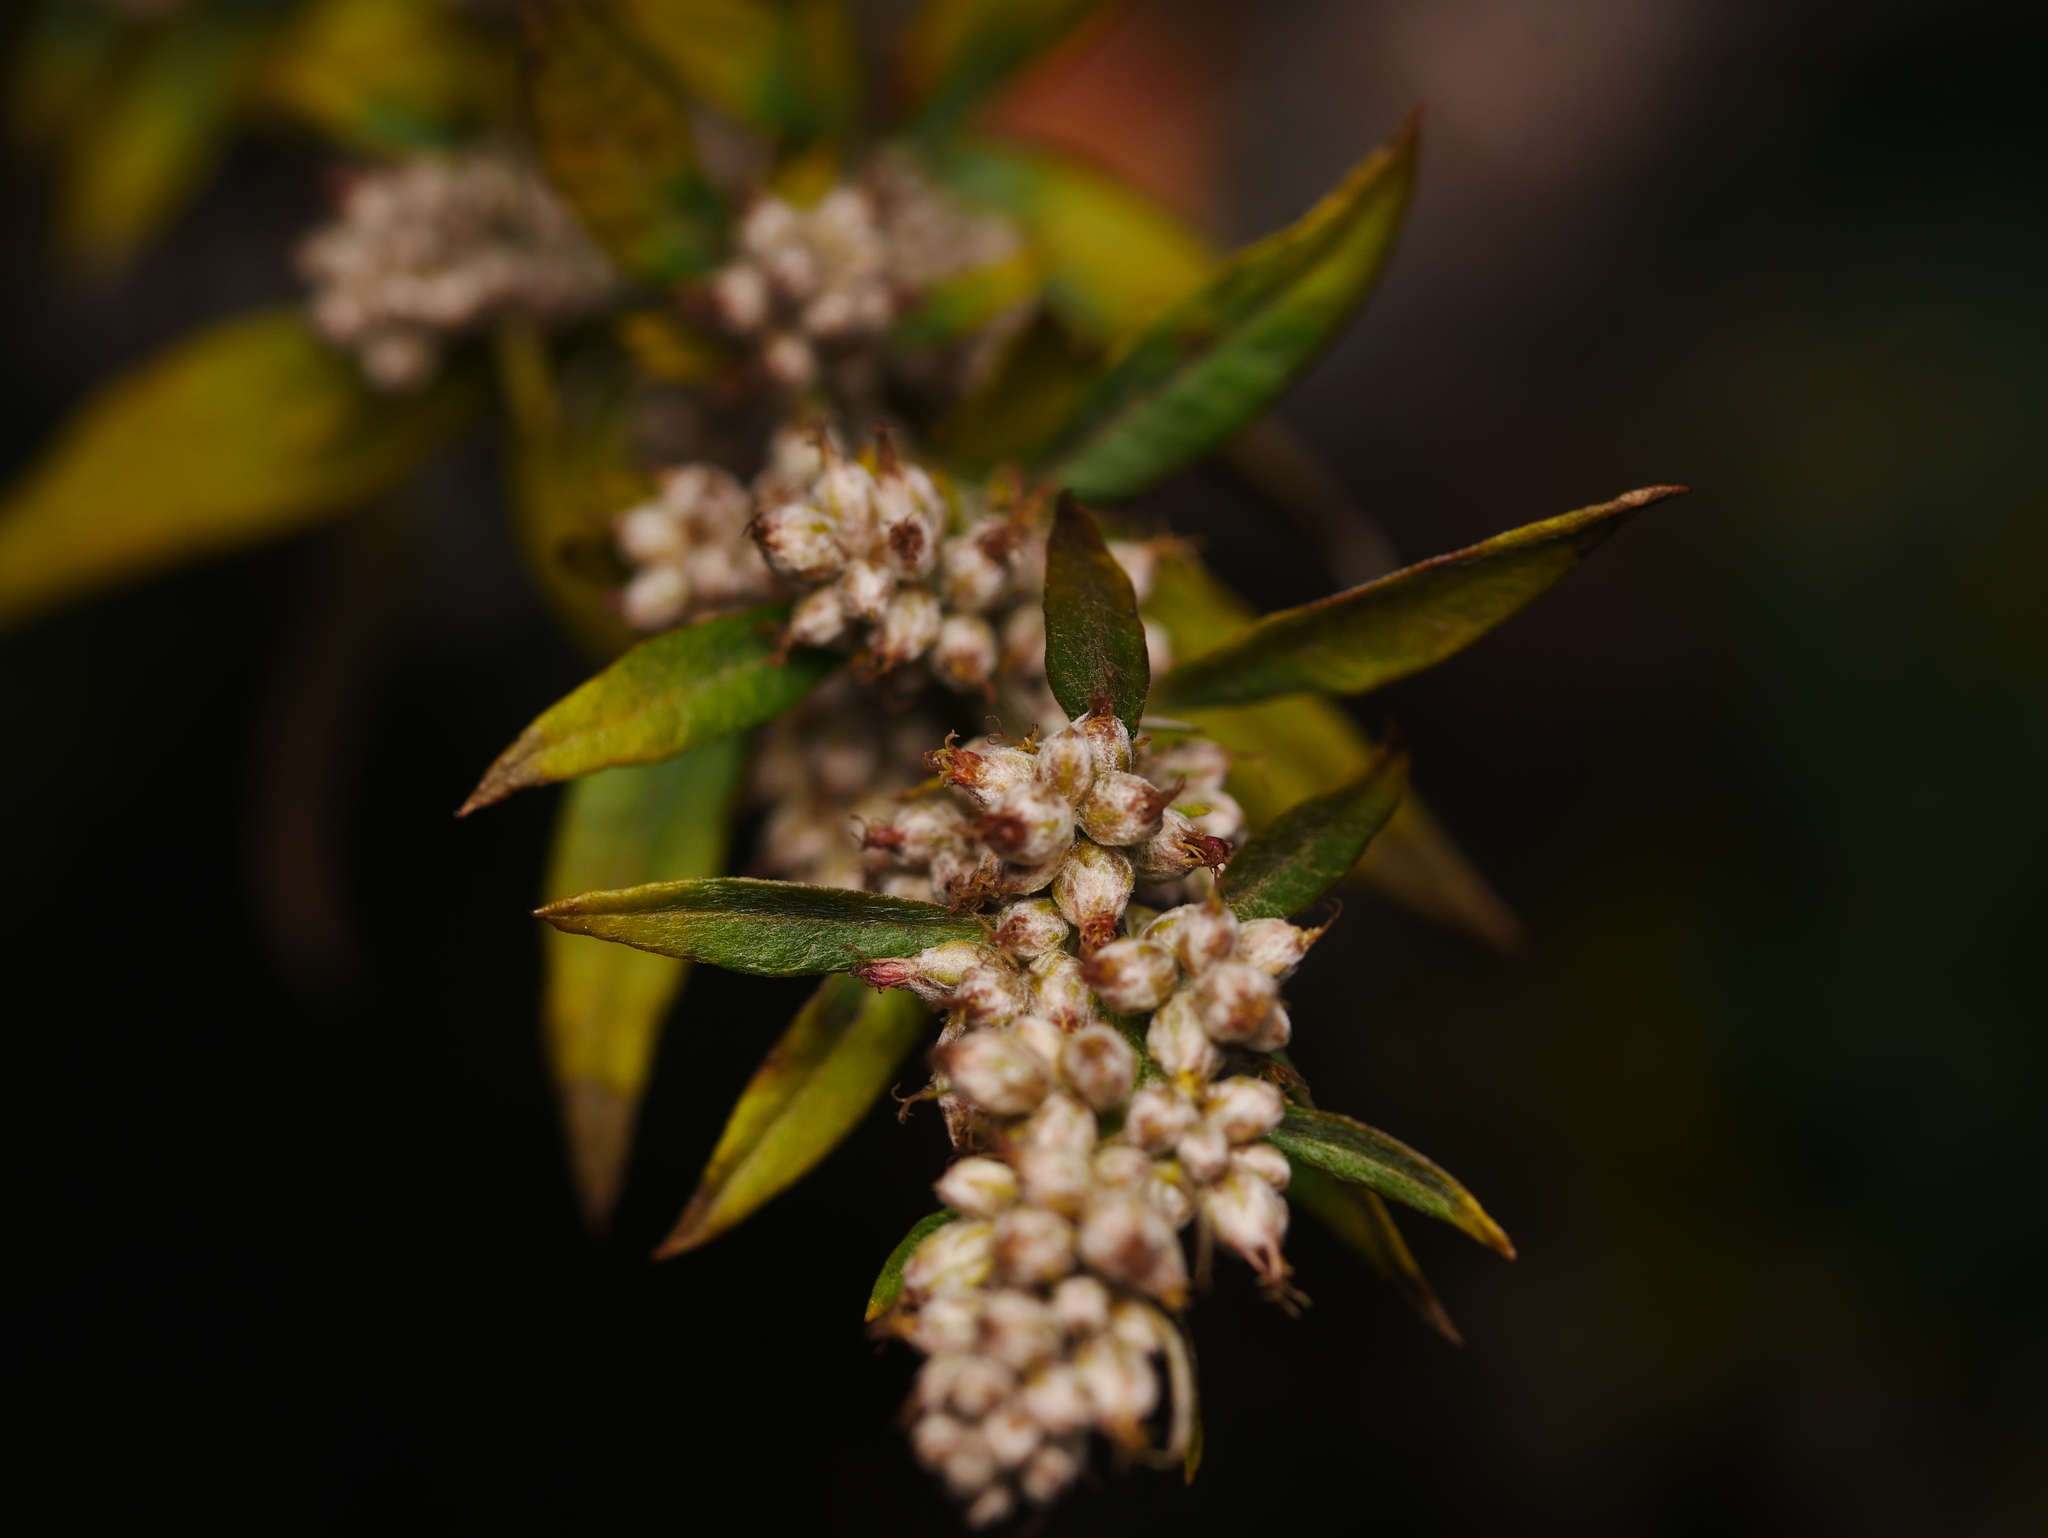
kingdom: Plantae
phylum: Tracheophyta
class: Magnoliopsida
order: Asterales
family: Asteraceae
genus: Artemisia
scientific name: Artemisia vulgaris
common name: Mugwort
